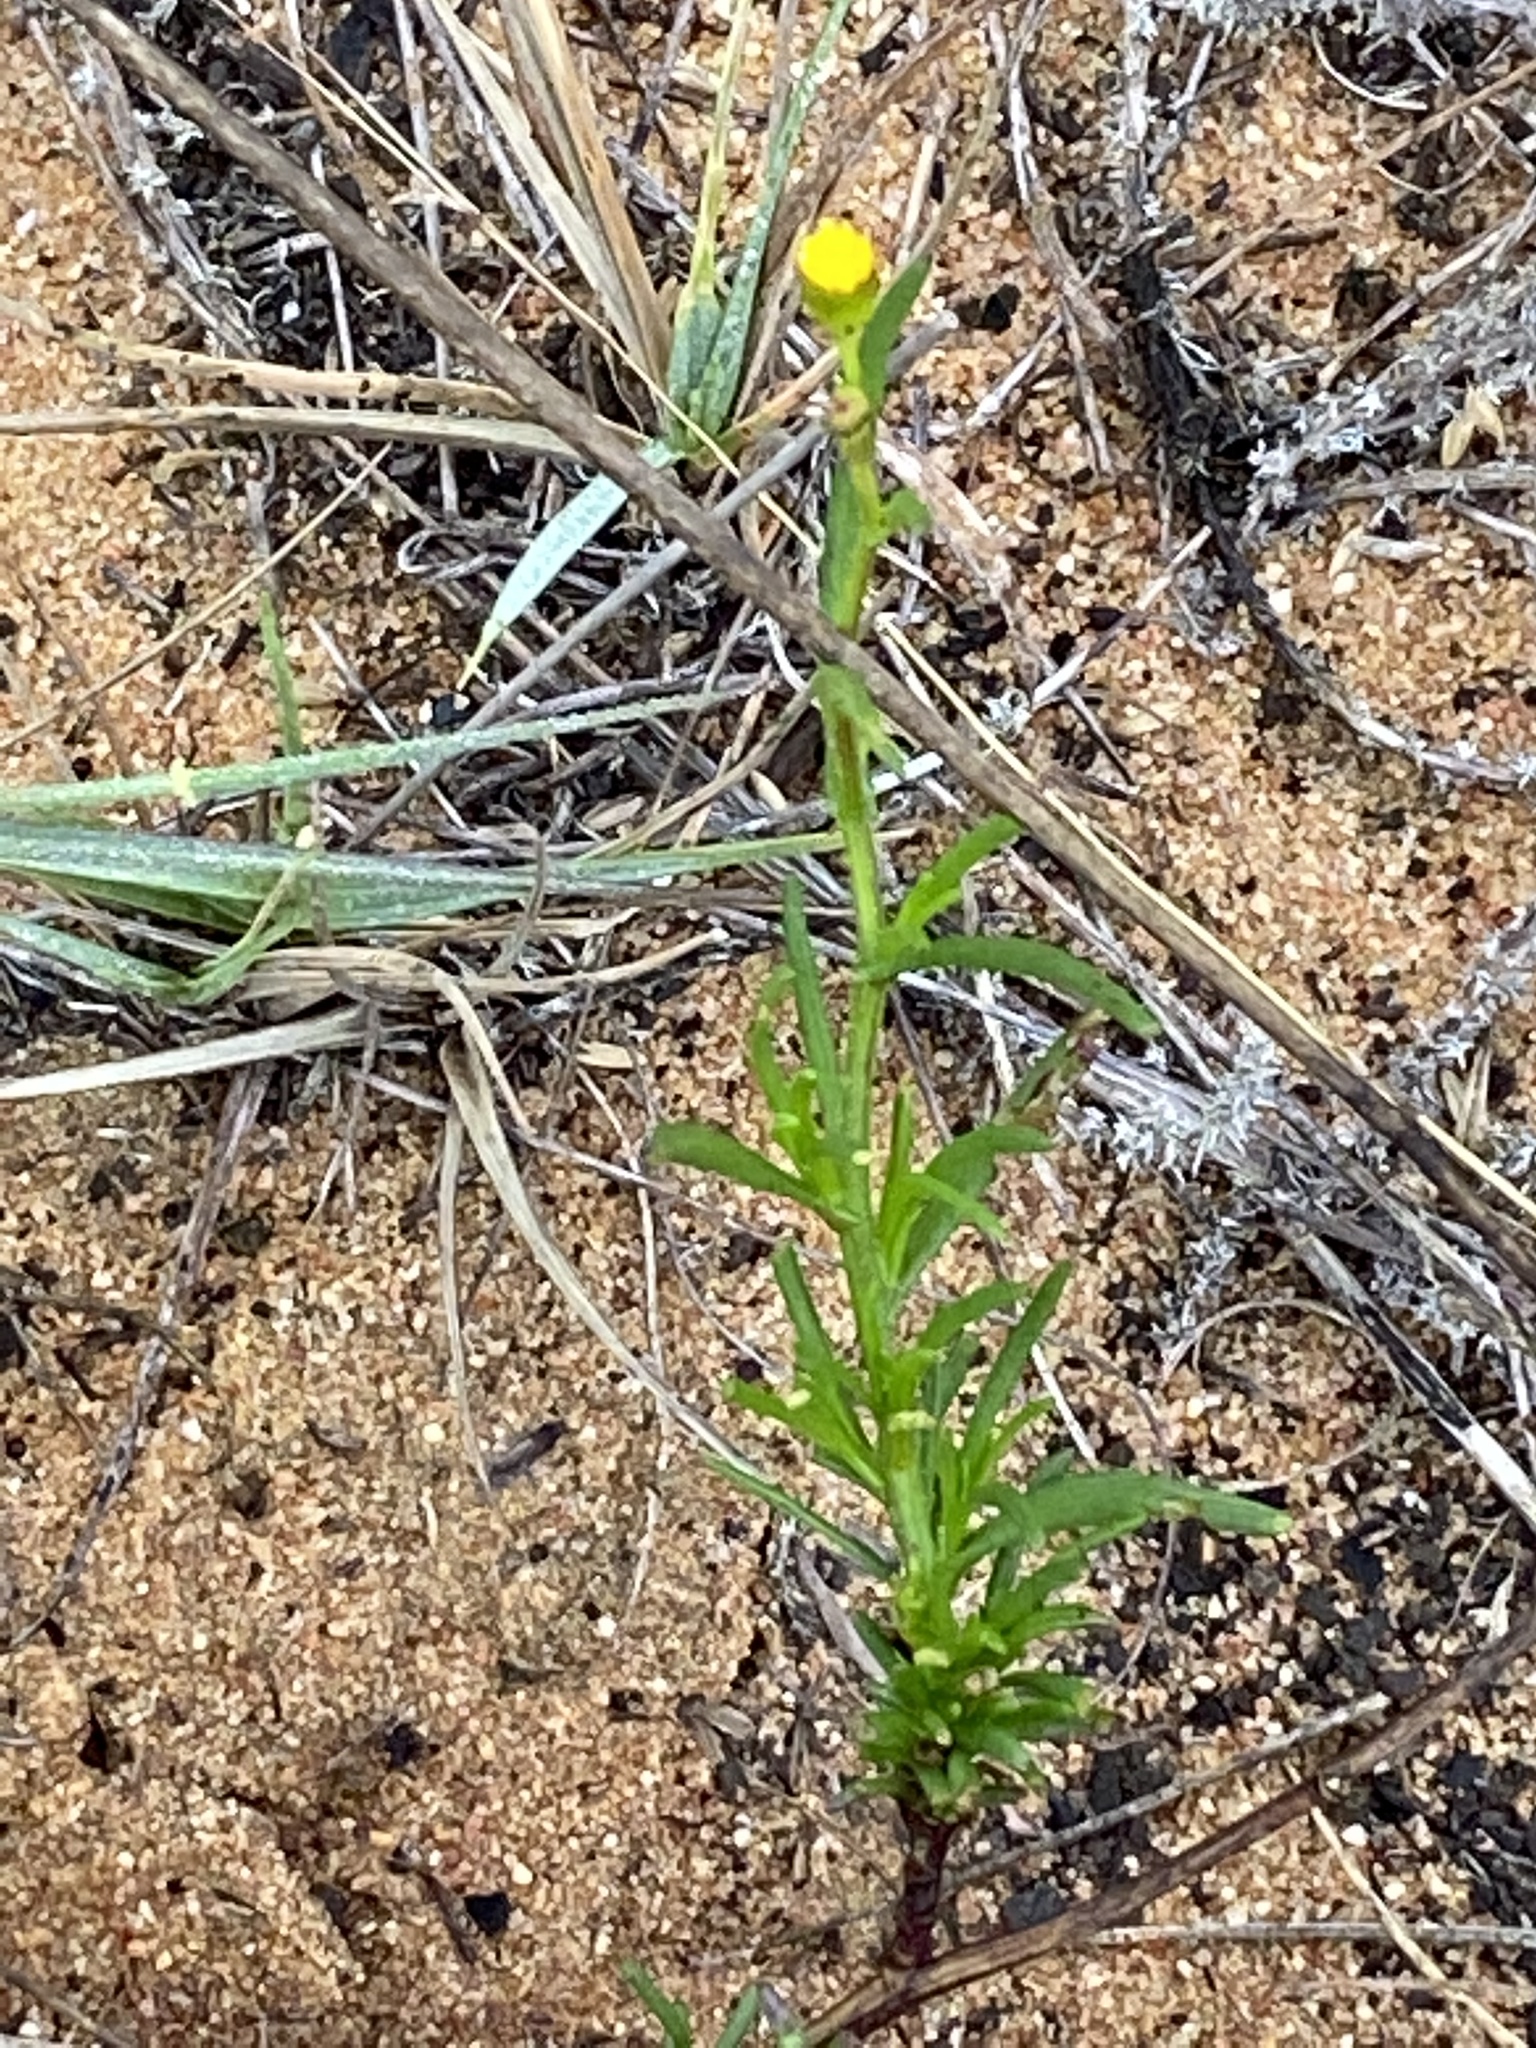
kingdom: Plantae
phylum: Tracheophyta
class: Magnoliopsida
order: Asterales
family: Asteraceae
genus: Senecio
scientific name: Senecio burchellii
